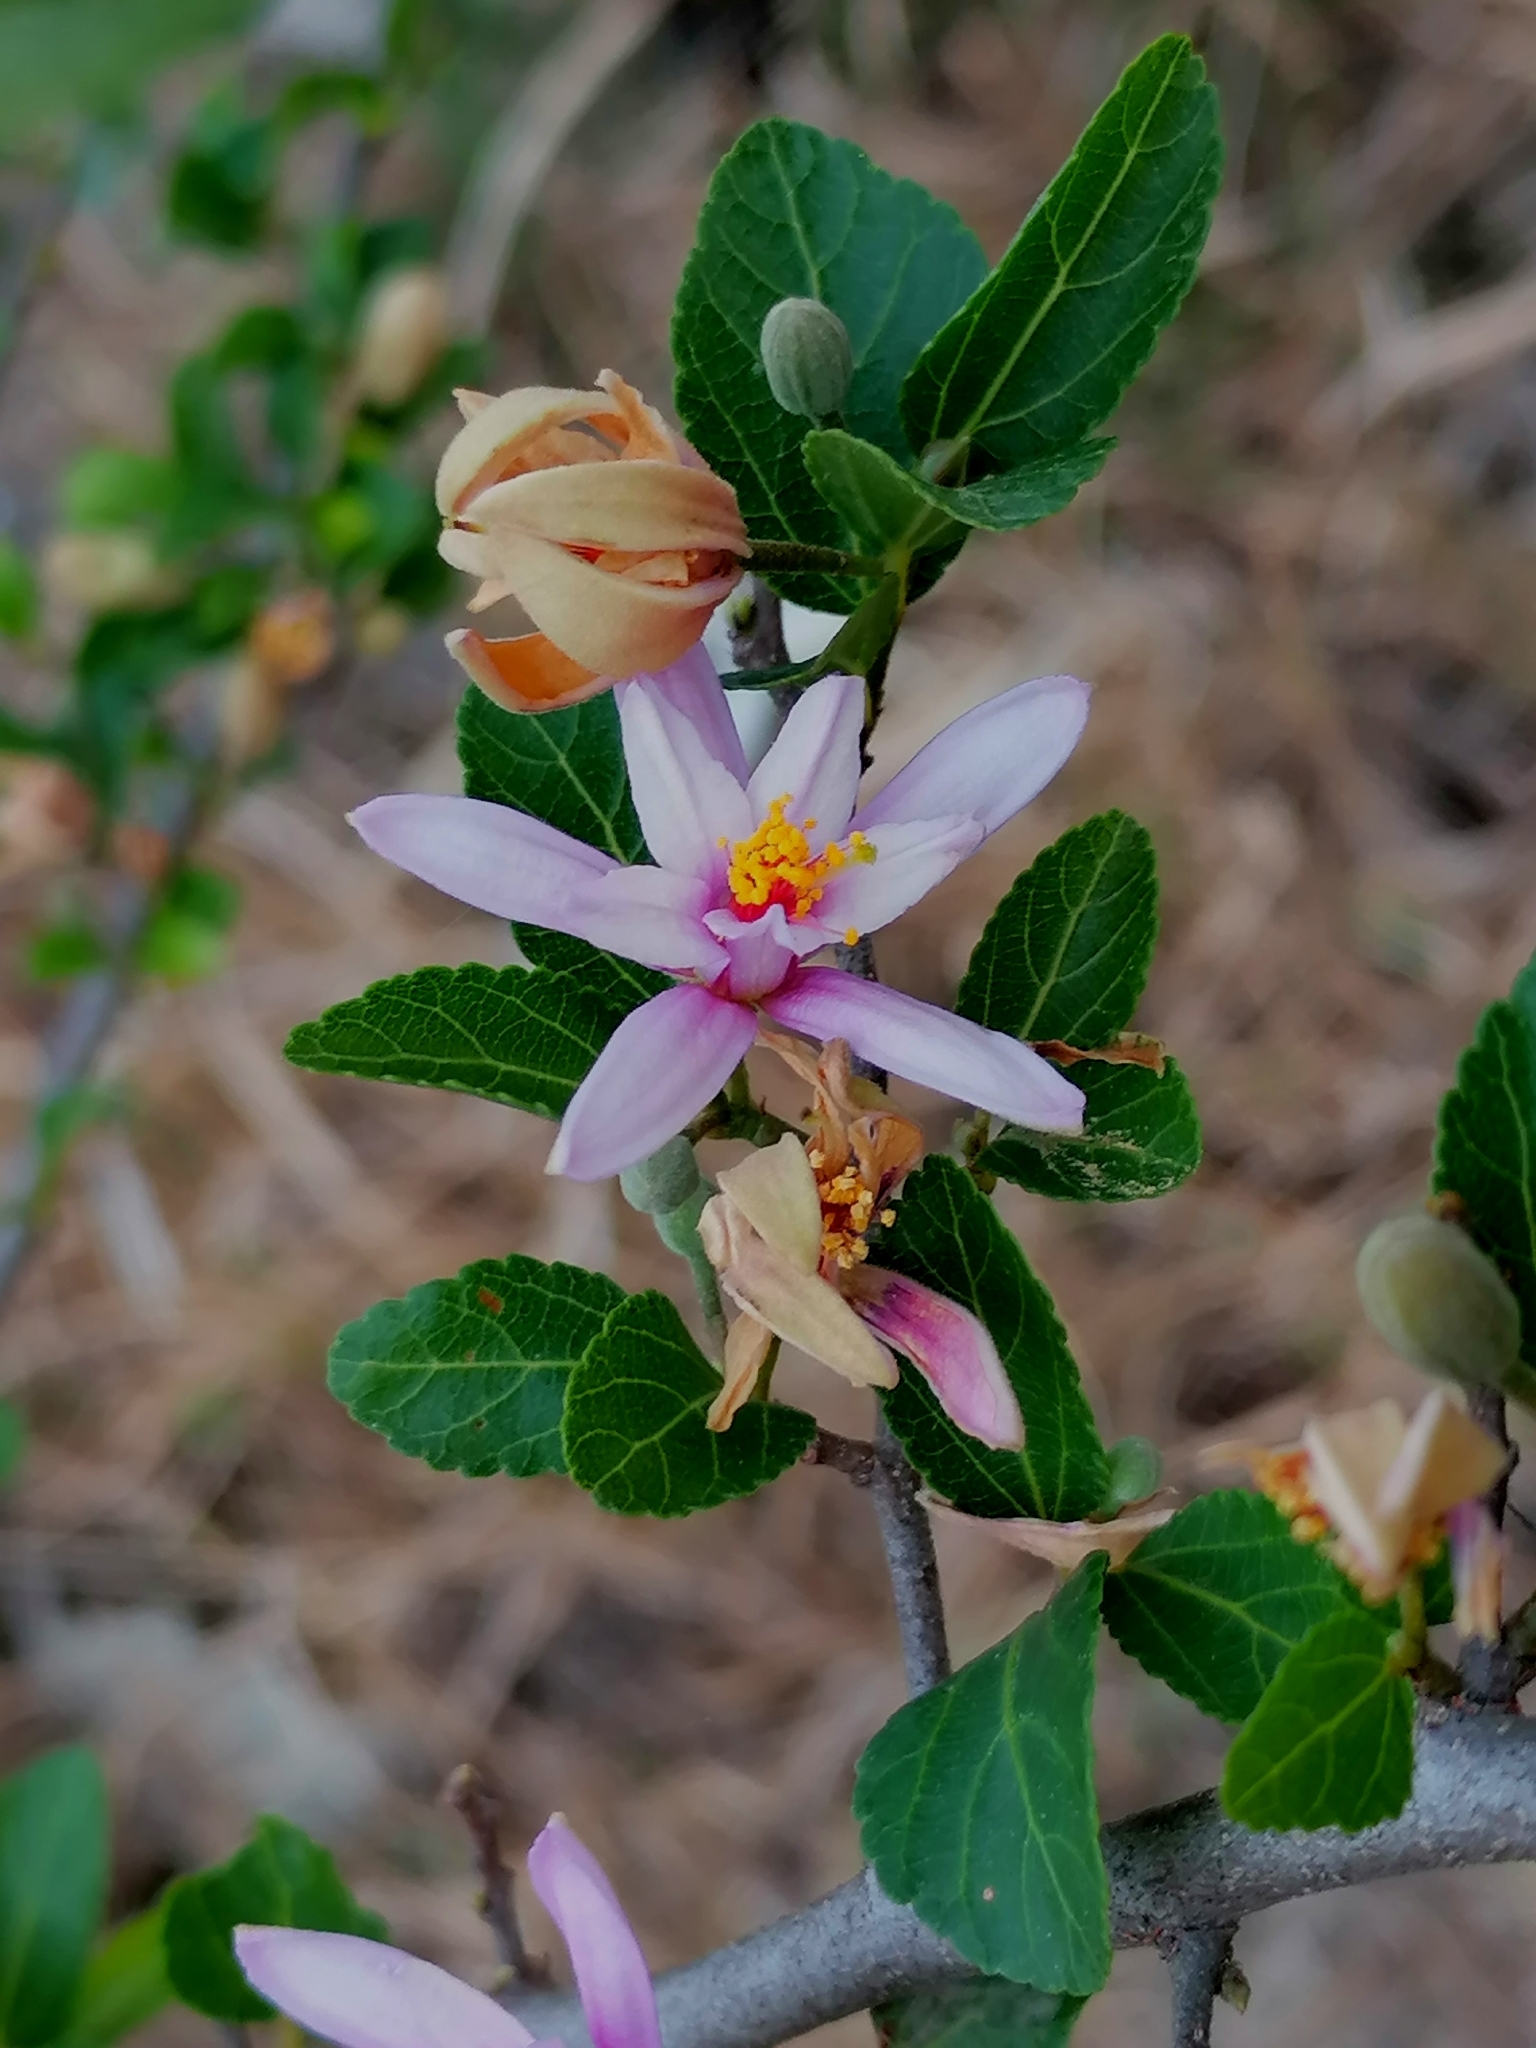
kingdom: Plantae
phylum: Tracheophyta
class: Magnoliopsida
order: Malvales
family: Malvaceae
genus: Grewia
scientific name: Grewia occidentalis
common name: Crossberry
